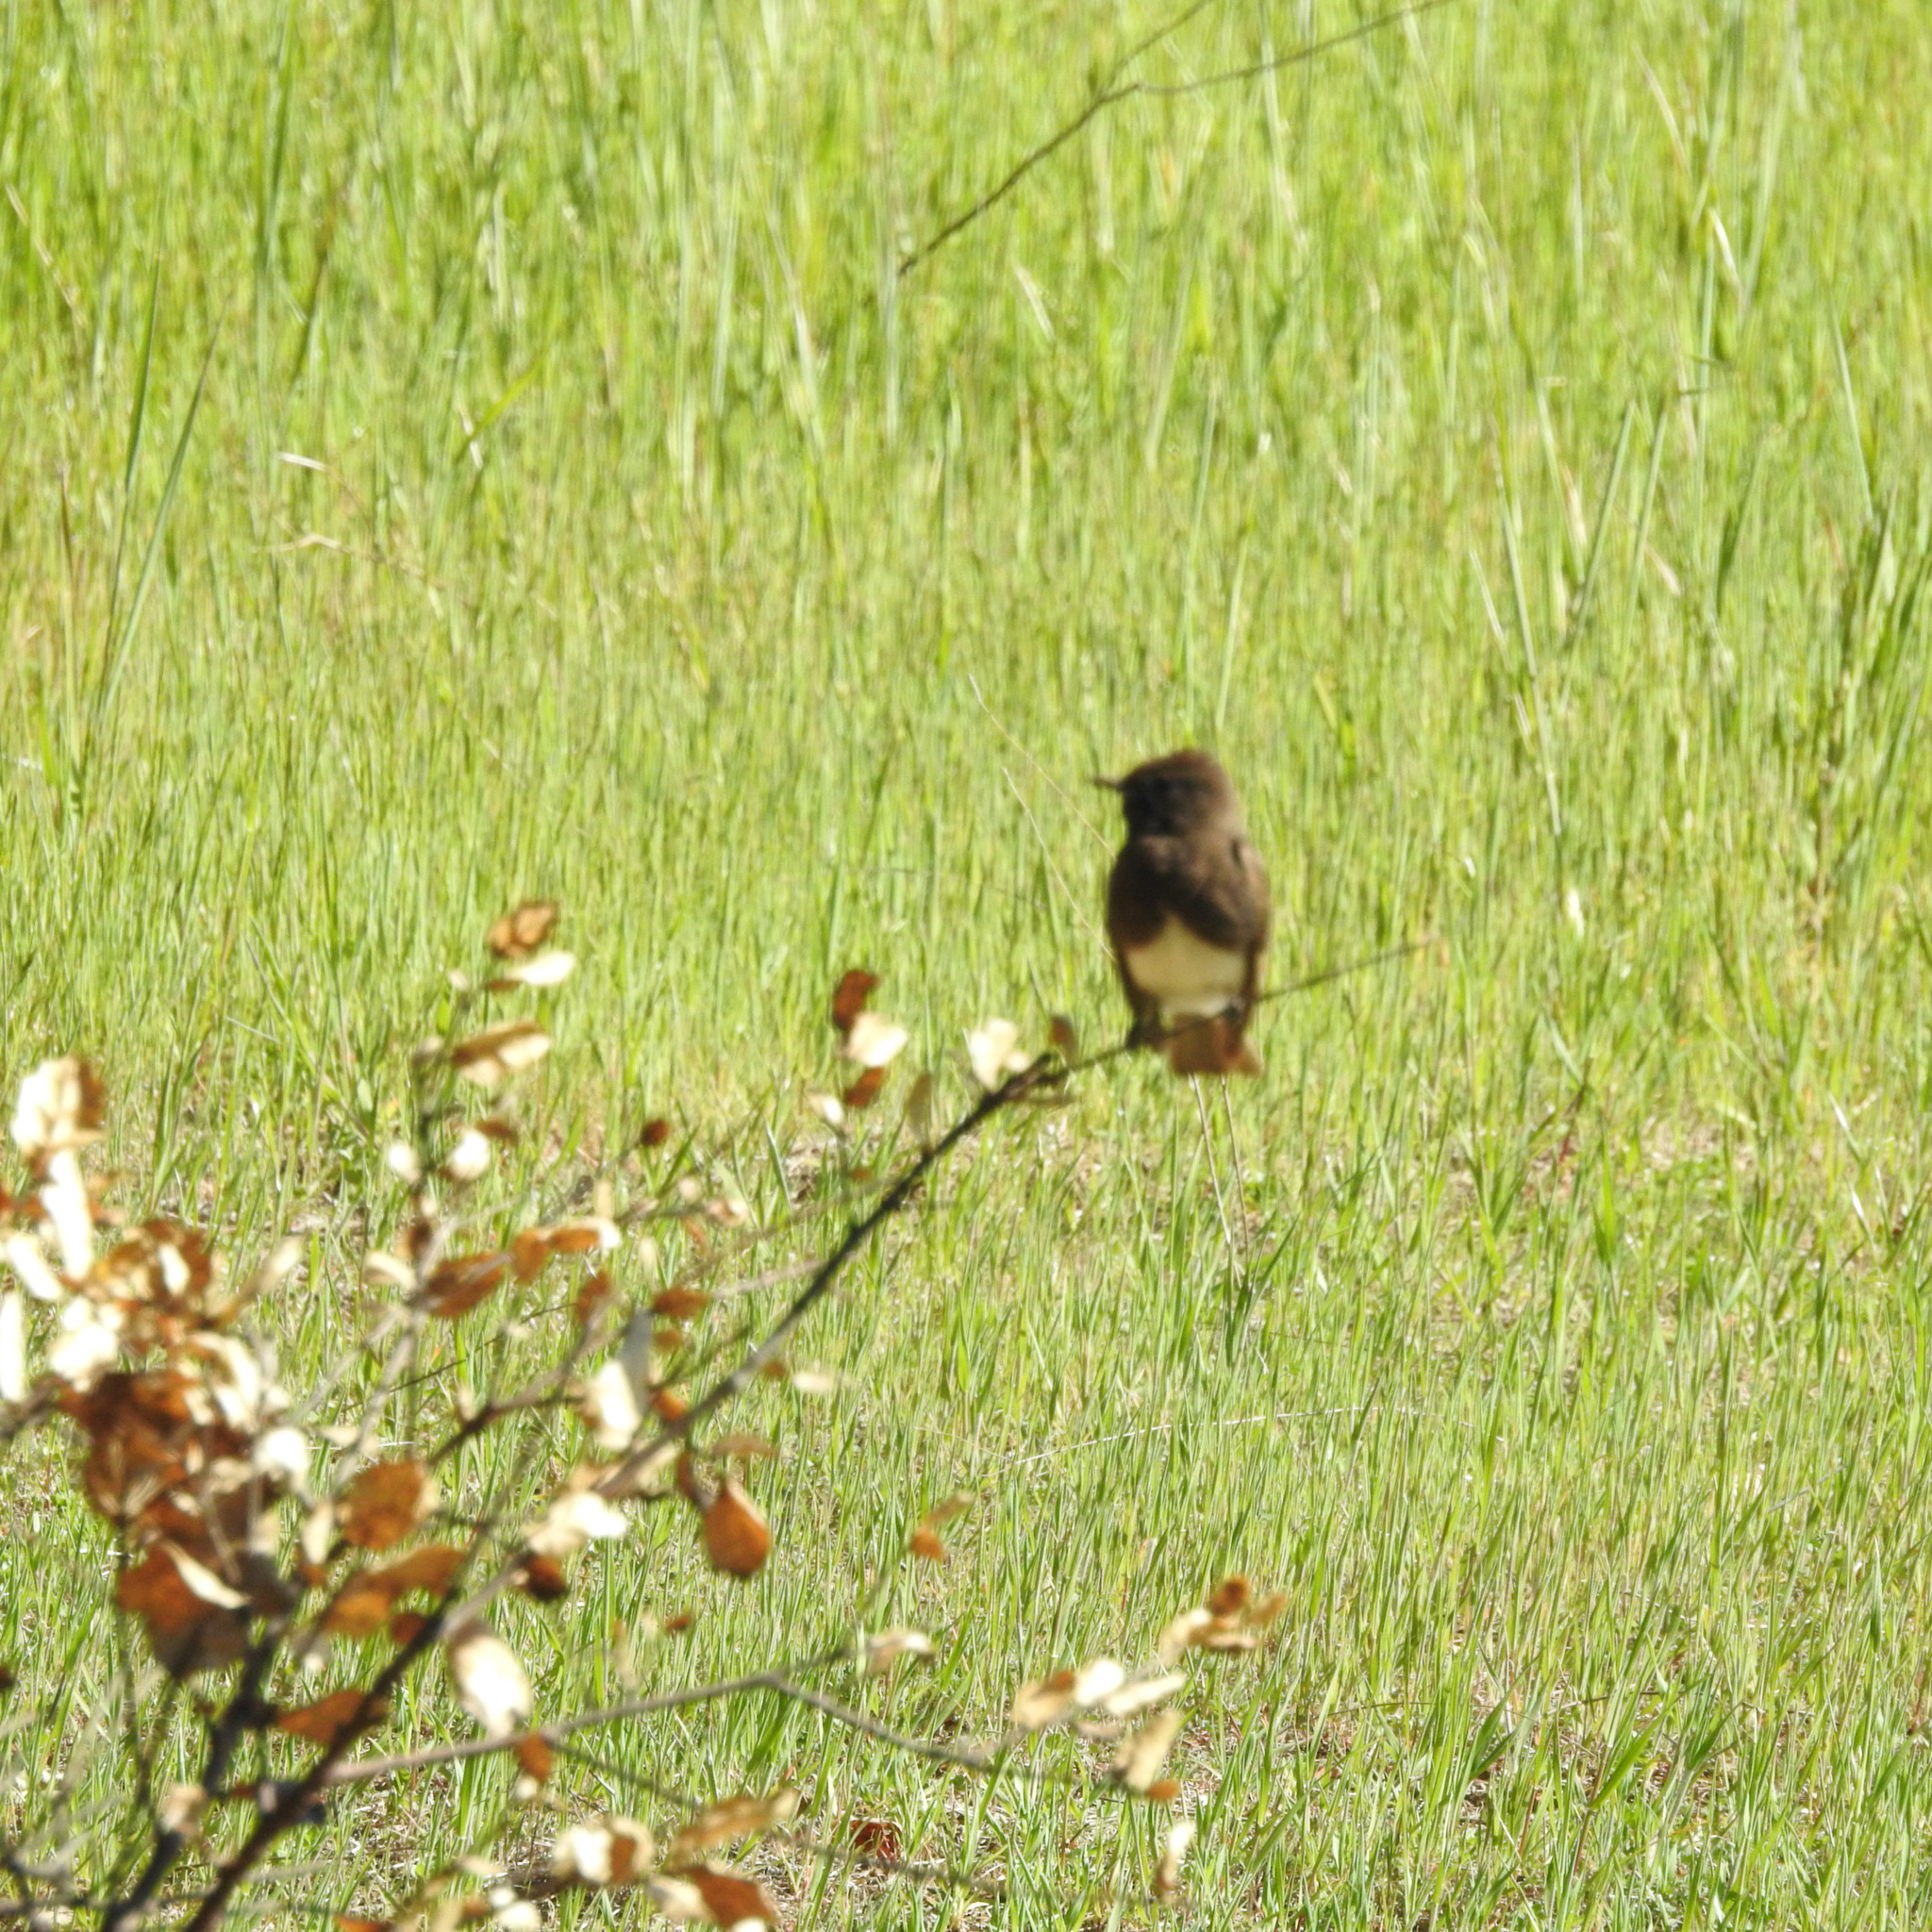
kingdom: Animalia
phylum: Chordata
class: Aves
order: Passeriformes
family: Tyrannidae
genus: Sayornis
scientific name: Sayornis nigricans
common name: Black phoebe
